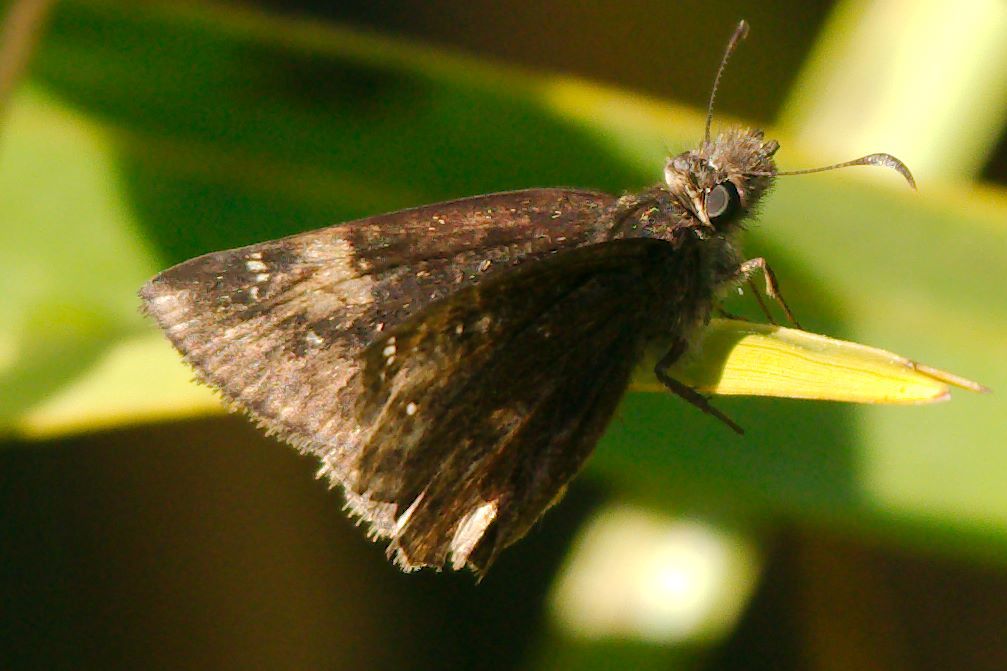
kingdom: Animalia
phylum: Arthropoda
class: Insecta
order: Lepidoptera
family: Hesperiidae
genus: Erynnis
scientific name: Erynnis zarucco
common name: Zarucco duskywing
